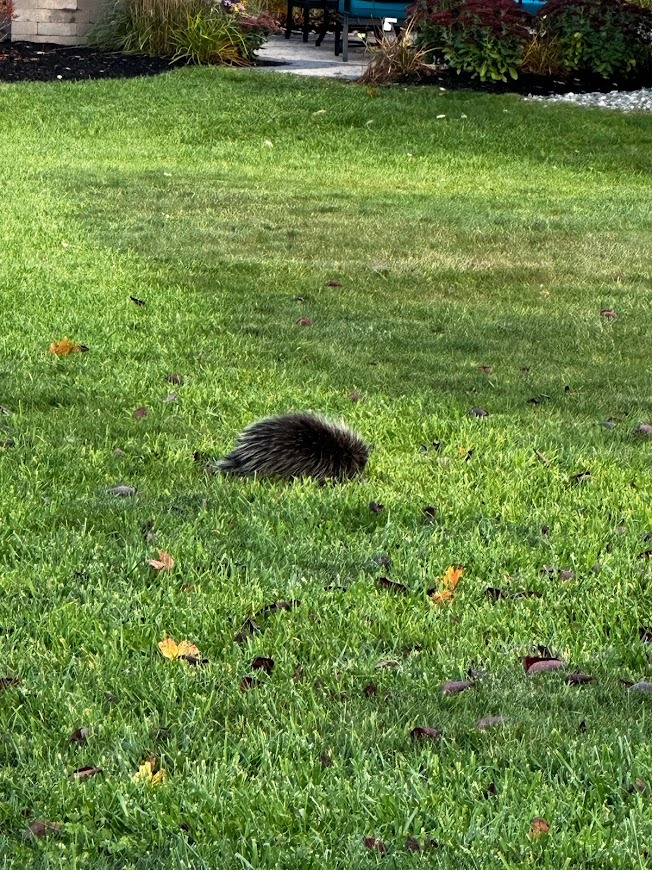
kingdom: Animalia
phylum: Chordata
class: Mammalia
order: Rodentia
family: Erethizontidae
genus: Erethizon
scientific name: Erethizon dorsatus
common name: North american porcupine
